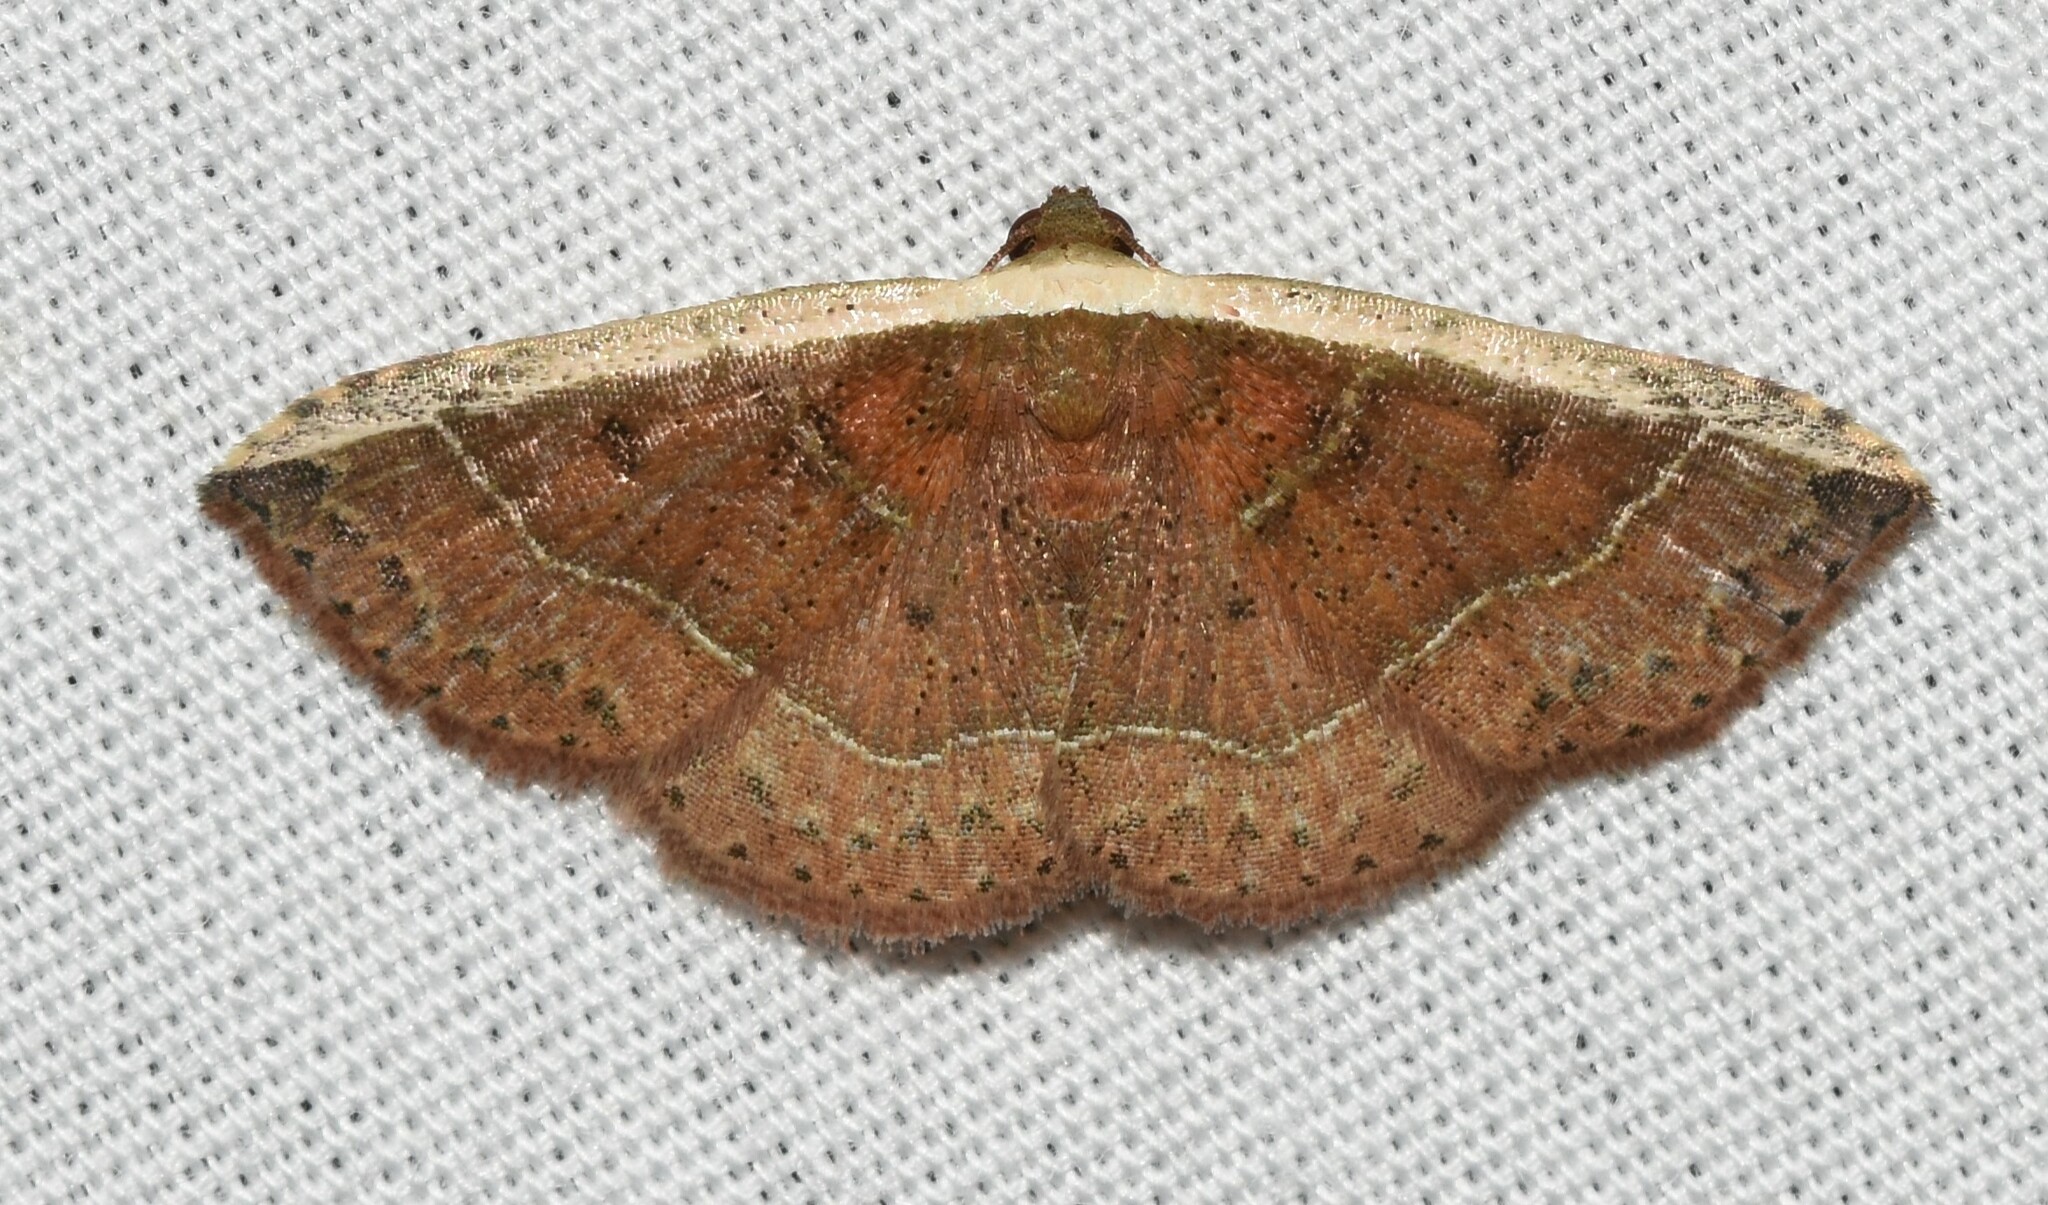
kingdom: Animalia
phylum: Arthropoda
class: Insecta
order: Lepidoptera
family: Noctuidae
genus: Ozarba
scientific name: Ozarba albocostaliata
